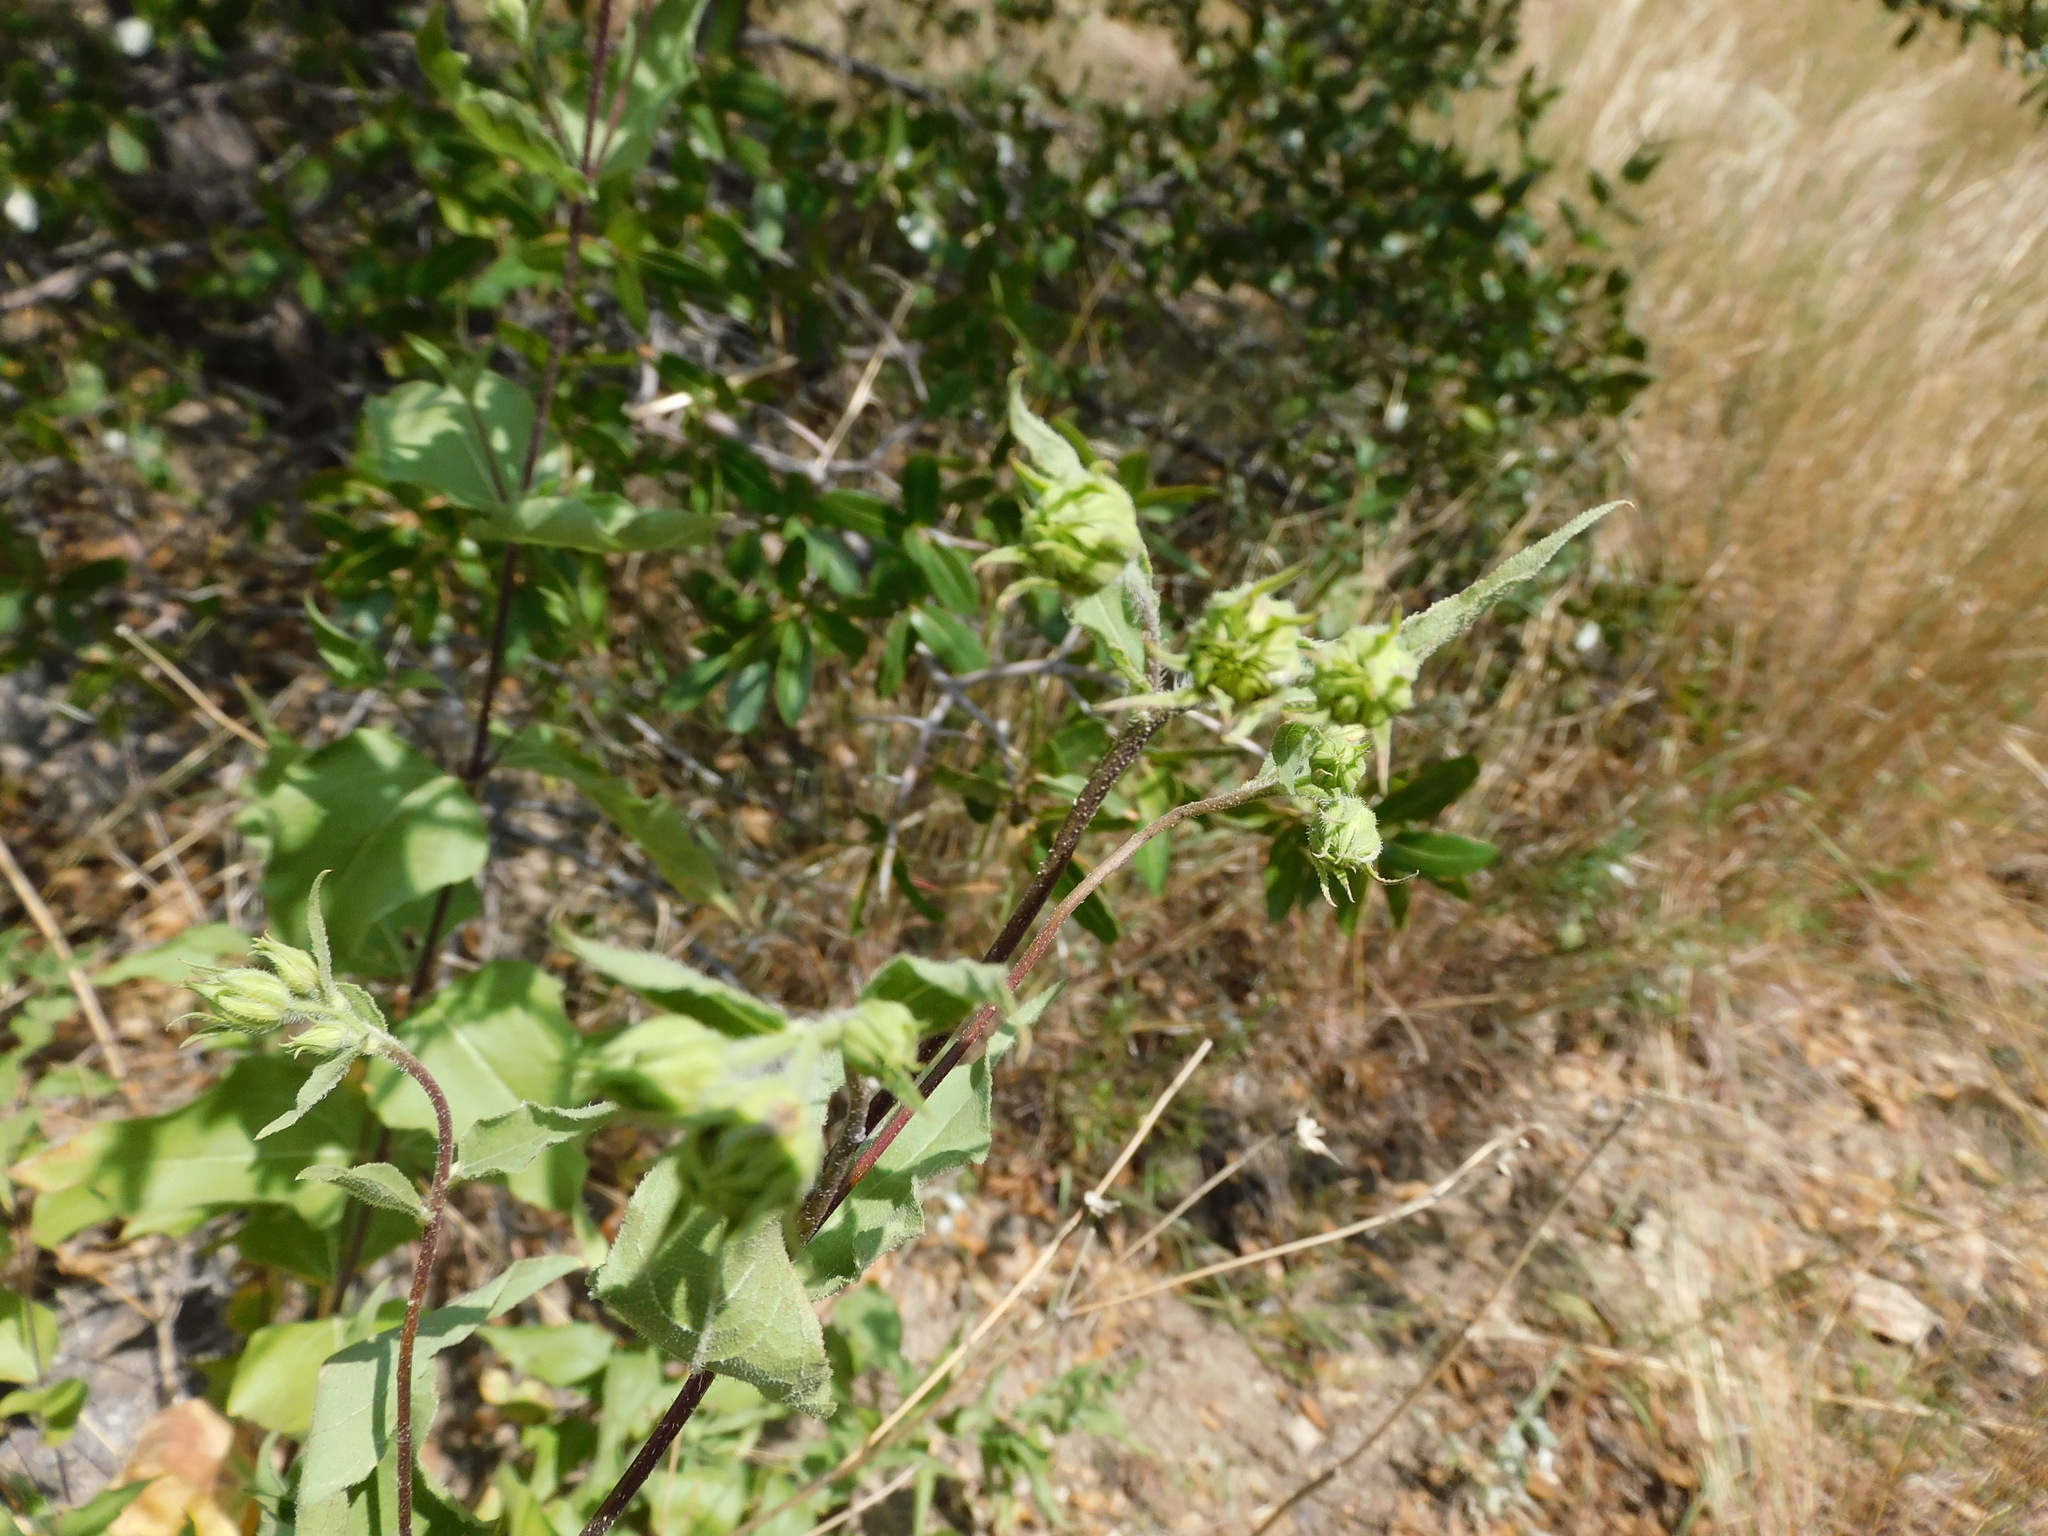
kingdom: Plantae
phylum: Tracheophyta
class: Magnoliopsida
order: Asterales
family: Asteraceae
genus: Aldama
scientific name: Aldama cordifolia
